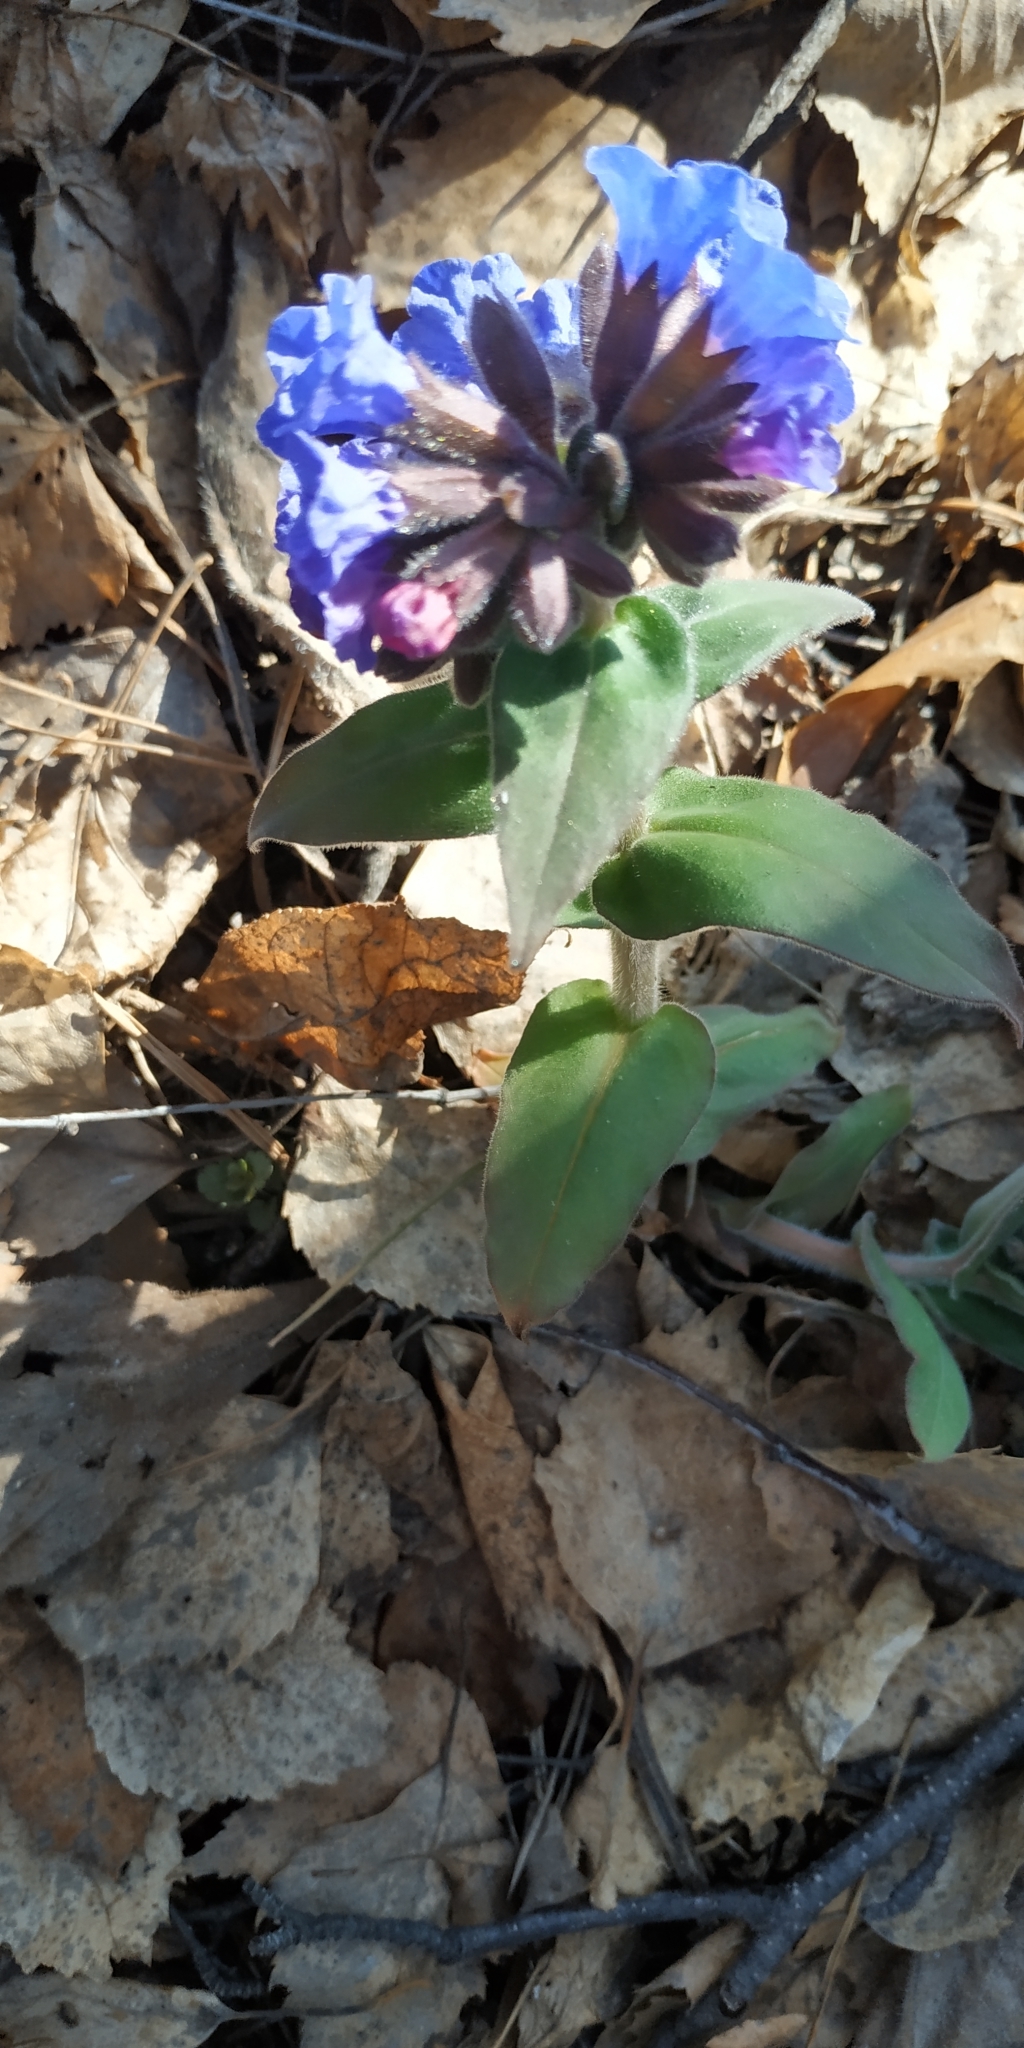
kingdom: Plantae
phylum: Tracheophyta
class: Magnoliopsida
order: Boraginales
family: Boraginaceae
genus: Pulmonaria
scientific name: Pulmonaria mollis
